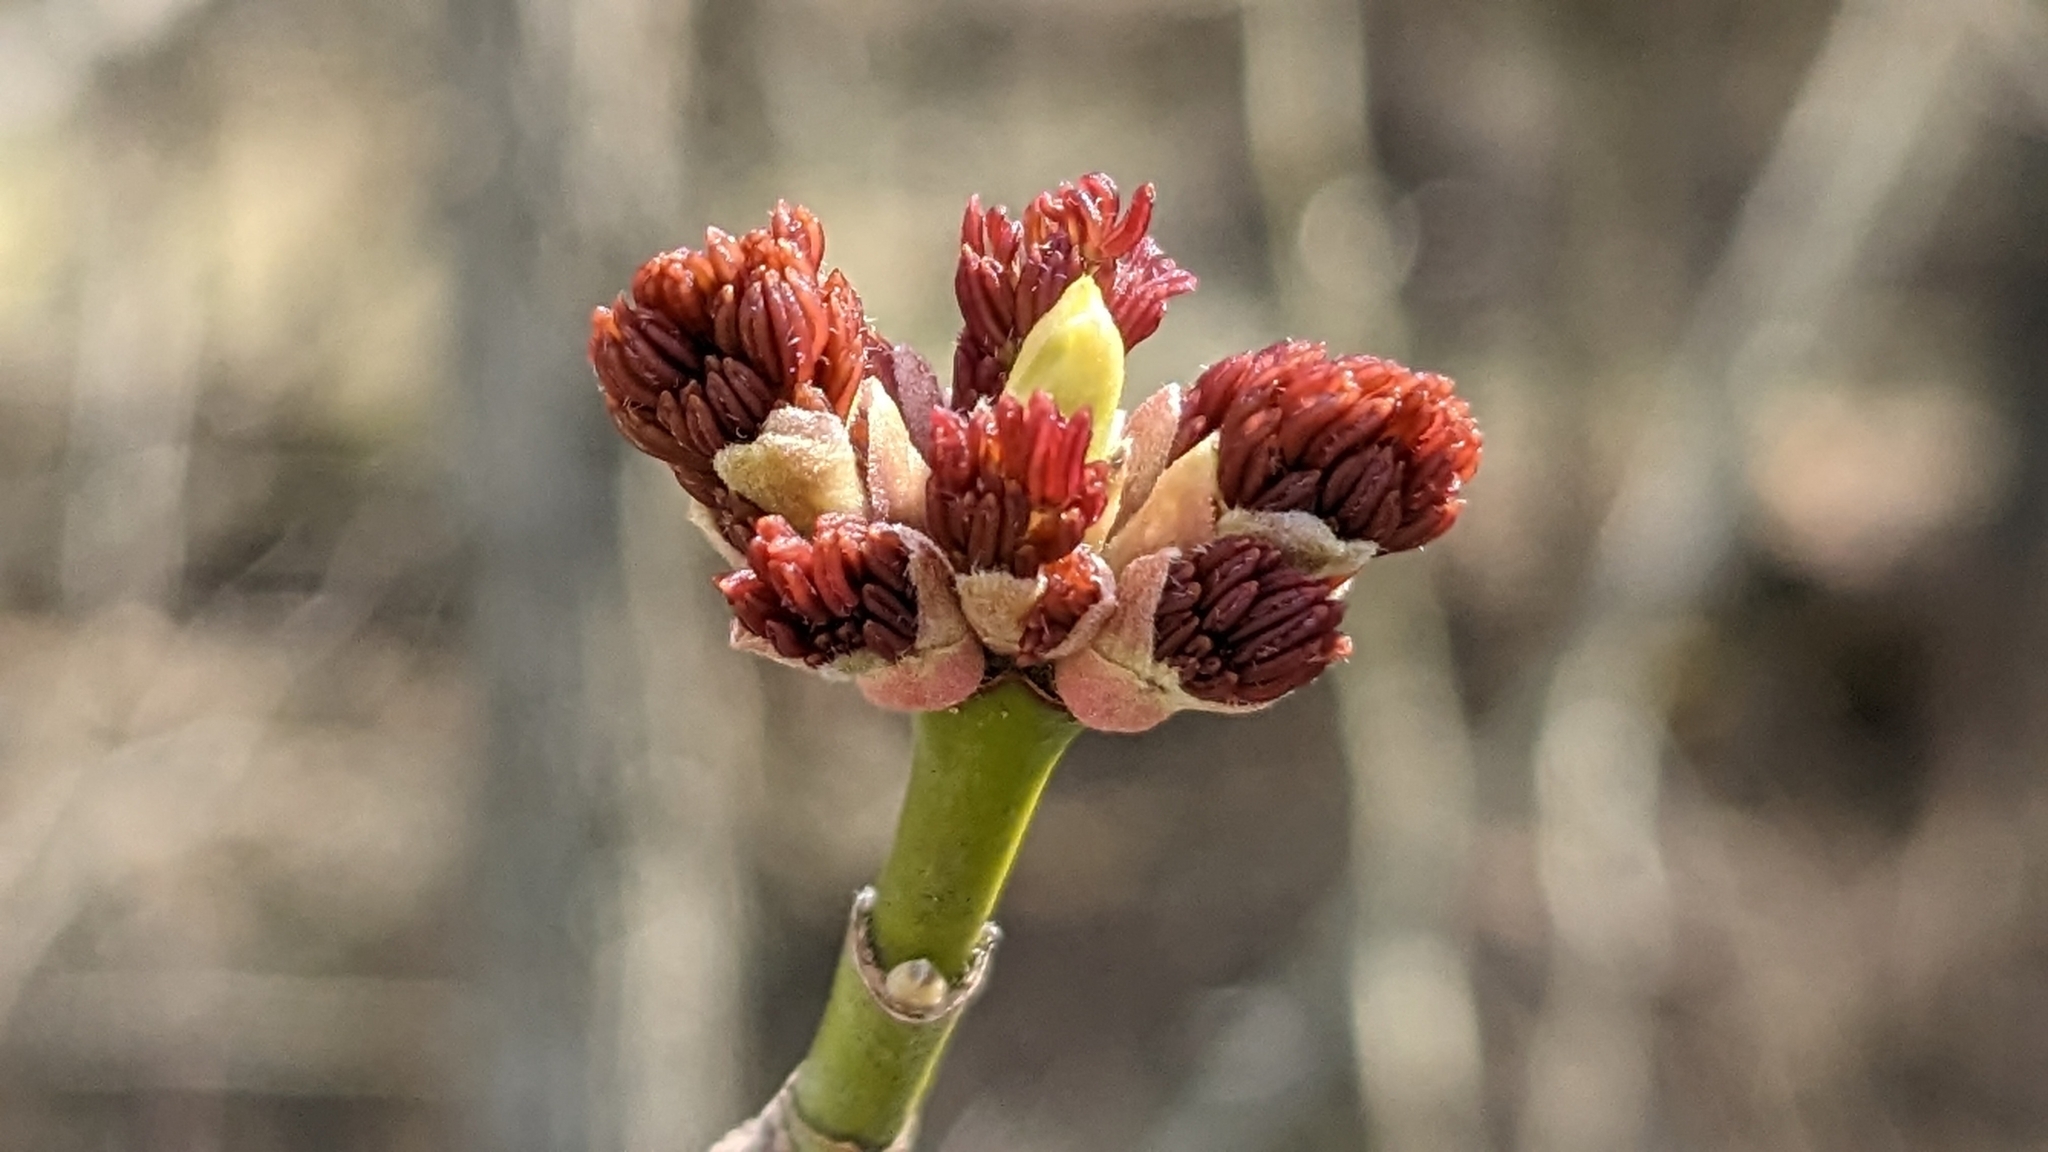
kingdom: Plantae
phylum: Tracheophyta
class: Magnoliopsida
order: Sapindales
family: Sapindaceae
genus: Acer
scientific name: Acer negundo
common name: Ashleaf maple
